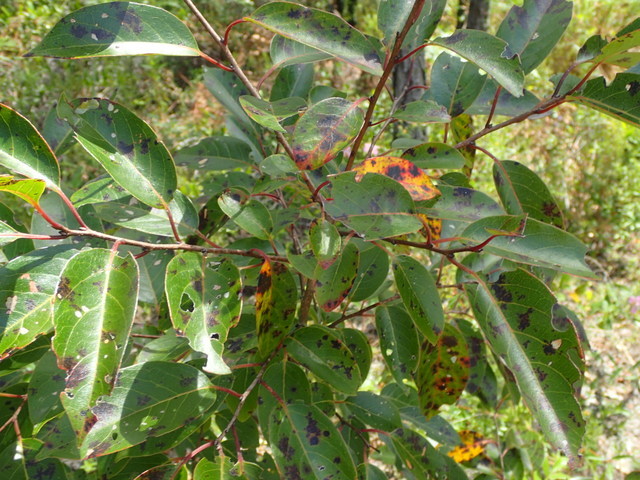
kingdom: Plantae
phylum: Tracheophyta
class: Magnoliopsida
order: Ericales
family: Ebenaceae
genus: Diospyros
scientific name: Diospyros virginiana
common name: Persimmon
